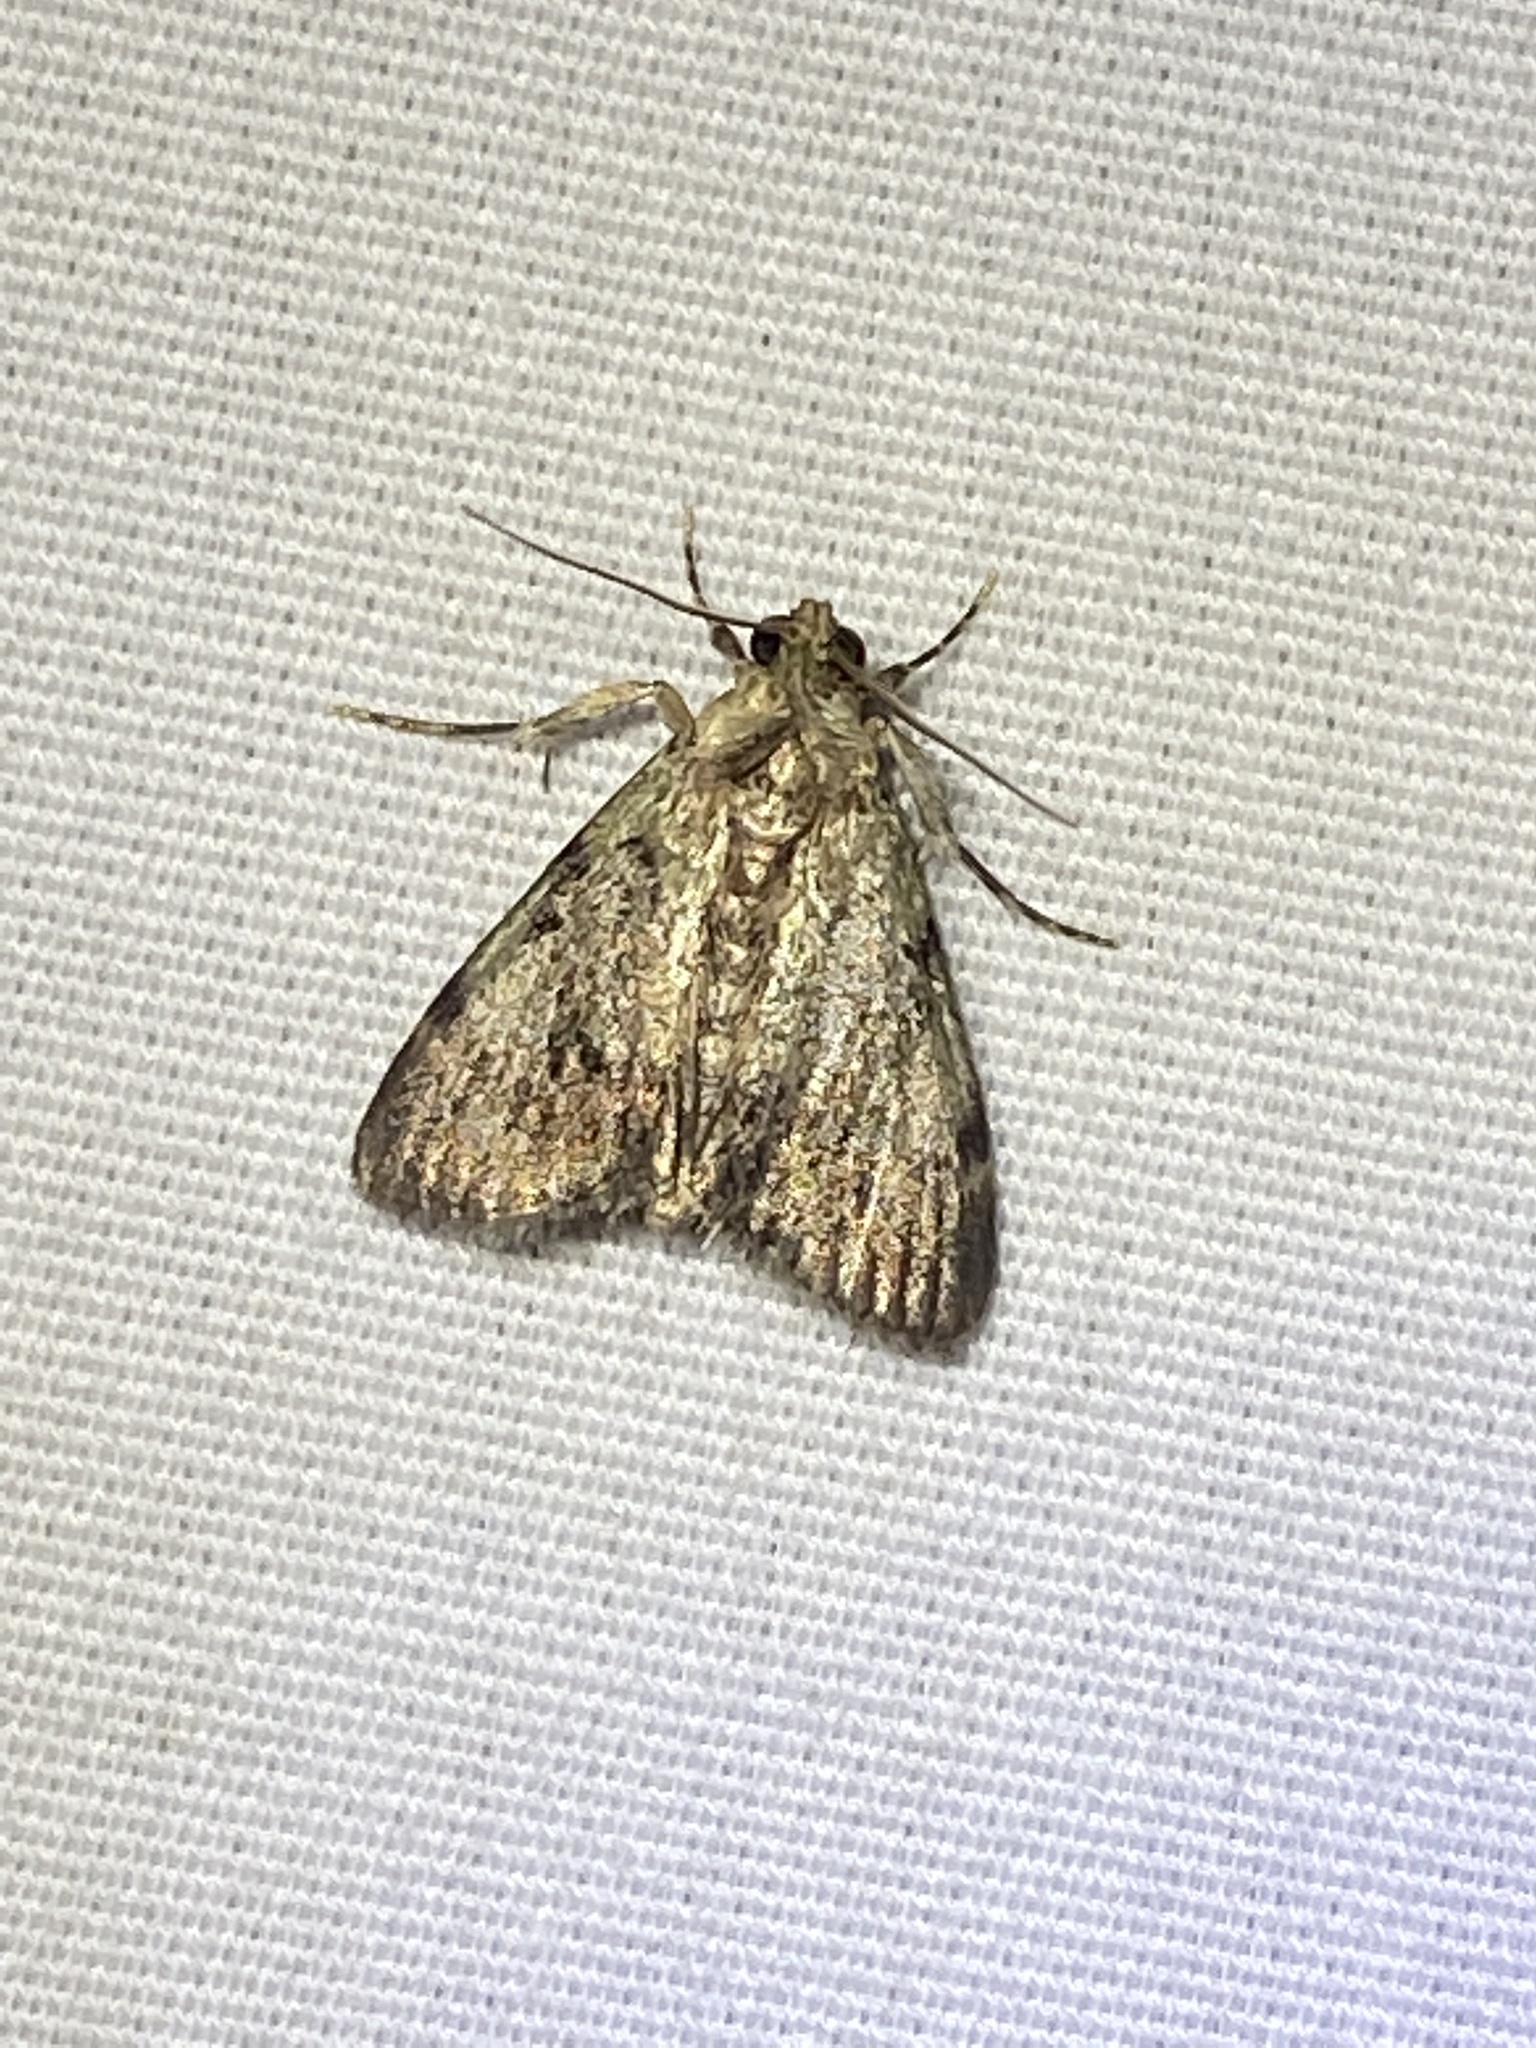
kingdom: Animalia
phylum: Arthropoda
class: Insecta
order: Lepidoptera
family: Pyralidae
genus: Epipaschia
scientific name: Epipaschia superatalis
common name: Dimorphic macalla moth
